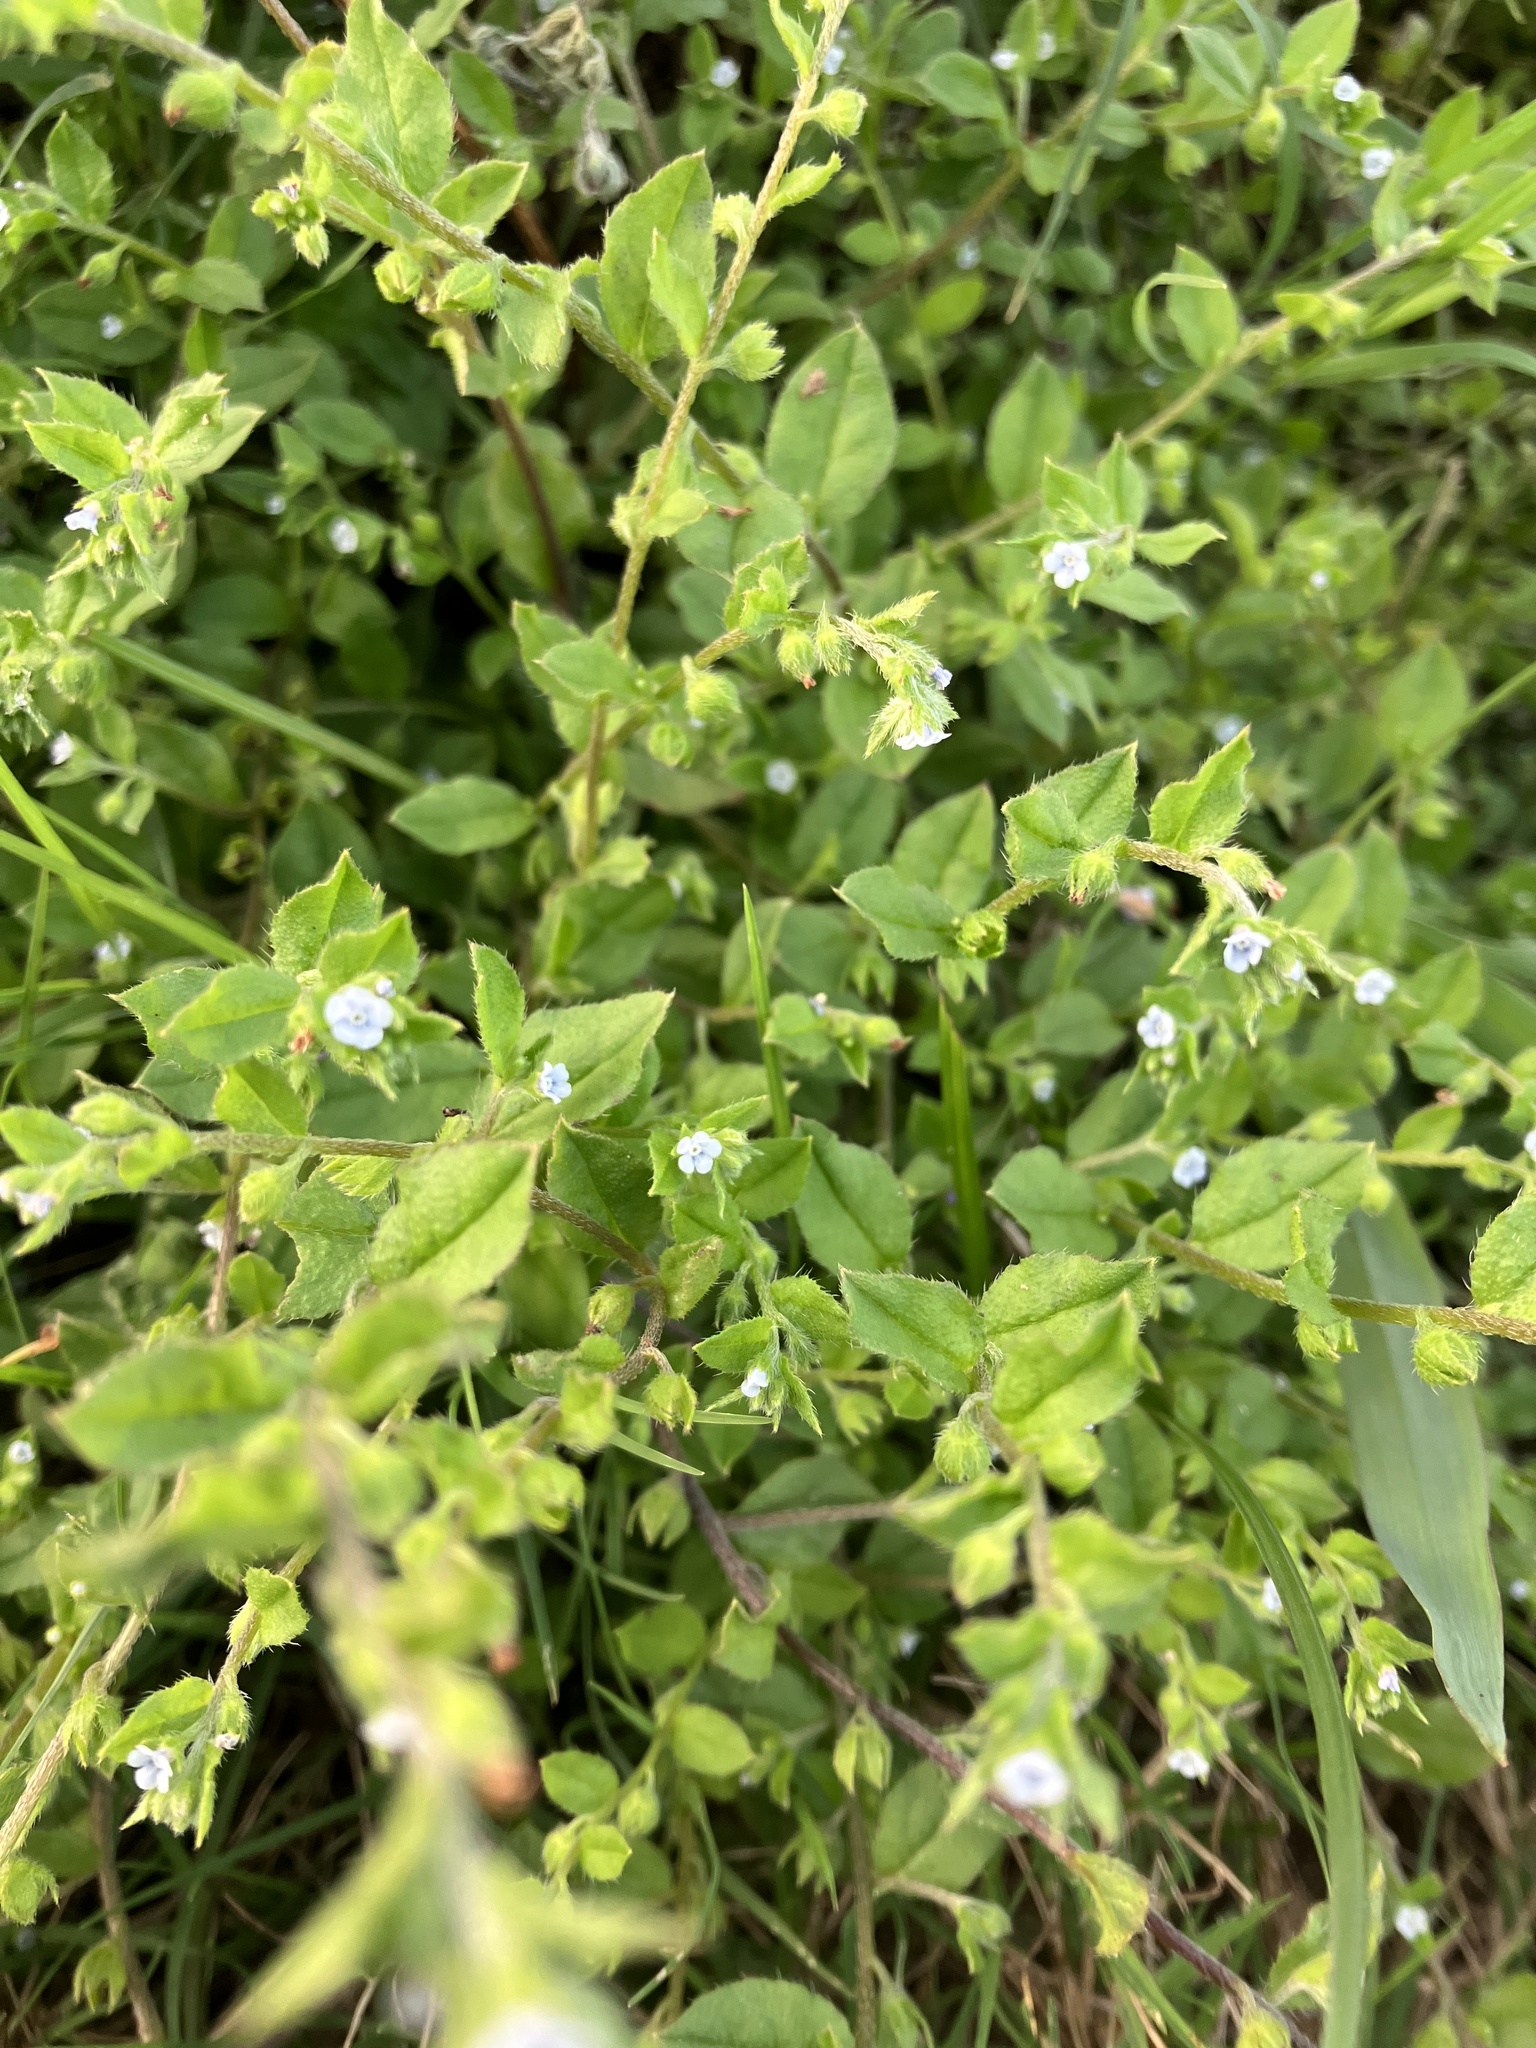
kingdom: Plantae
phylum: Tracheophyta
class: Magnoliopsida
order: Boraginales
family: Boraginaceae
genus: Bothriospermum
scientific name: Bothriospermum zeylanicum
